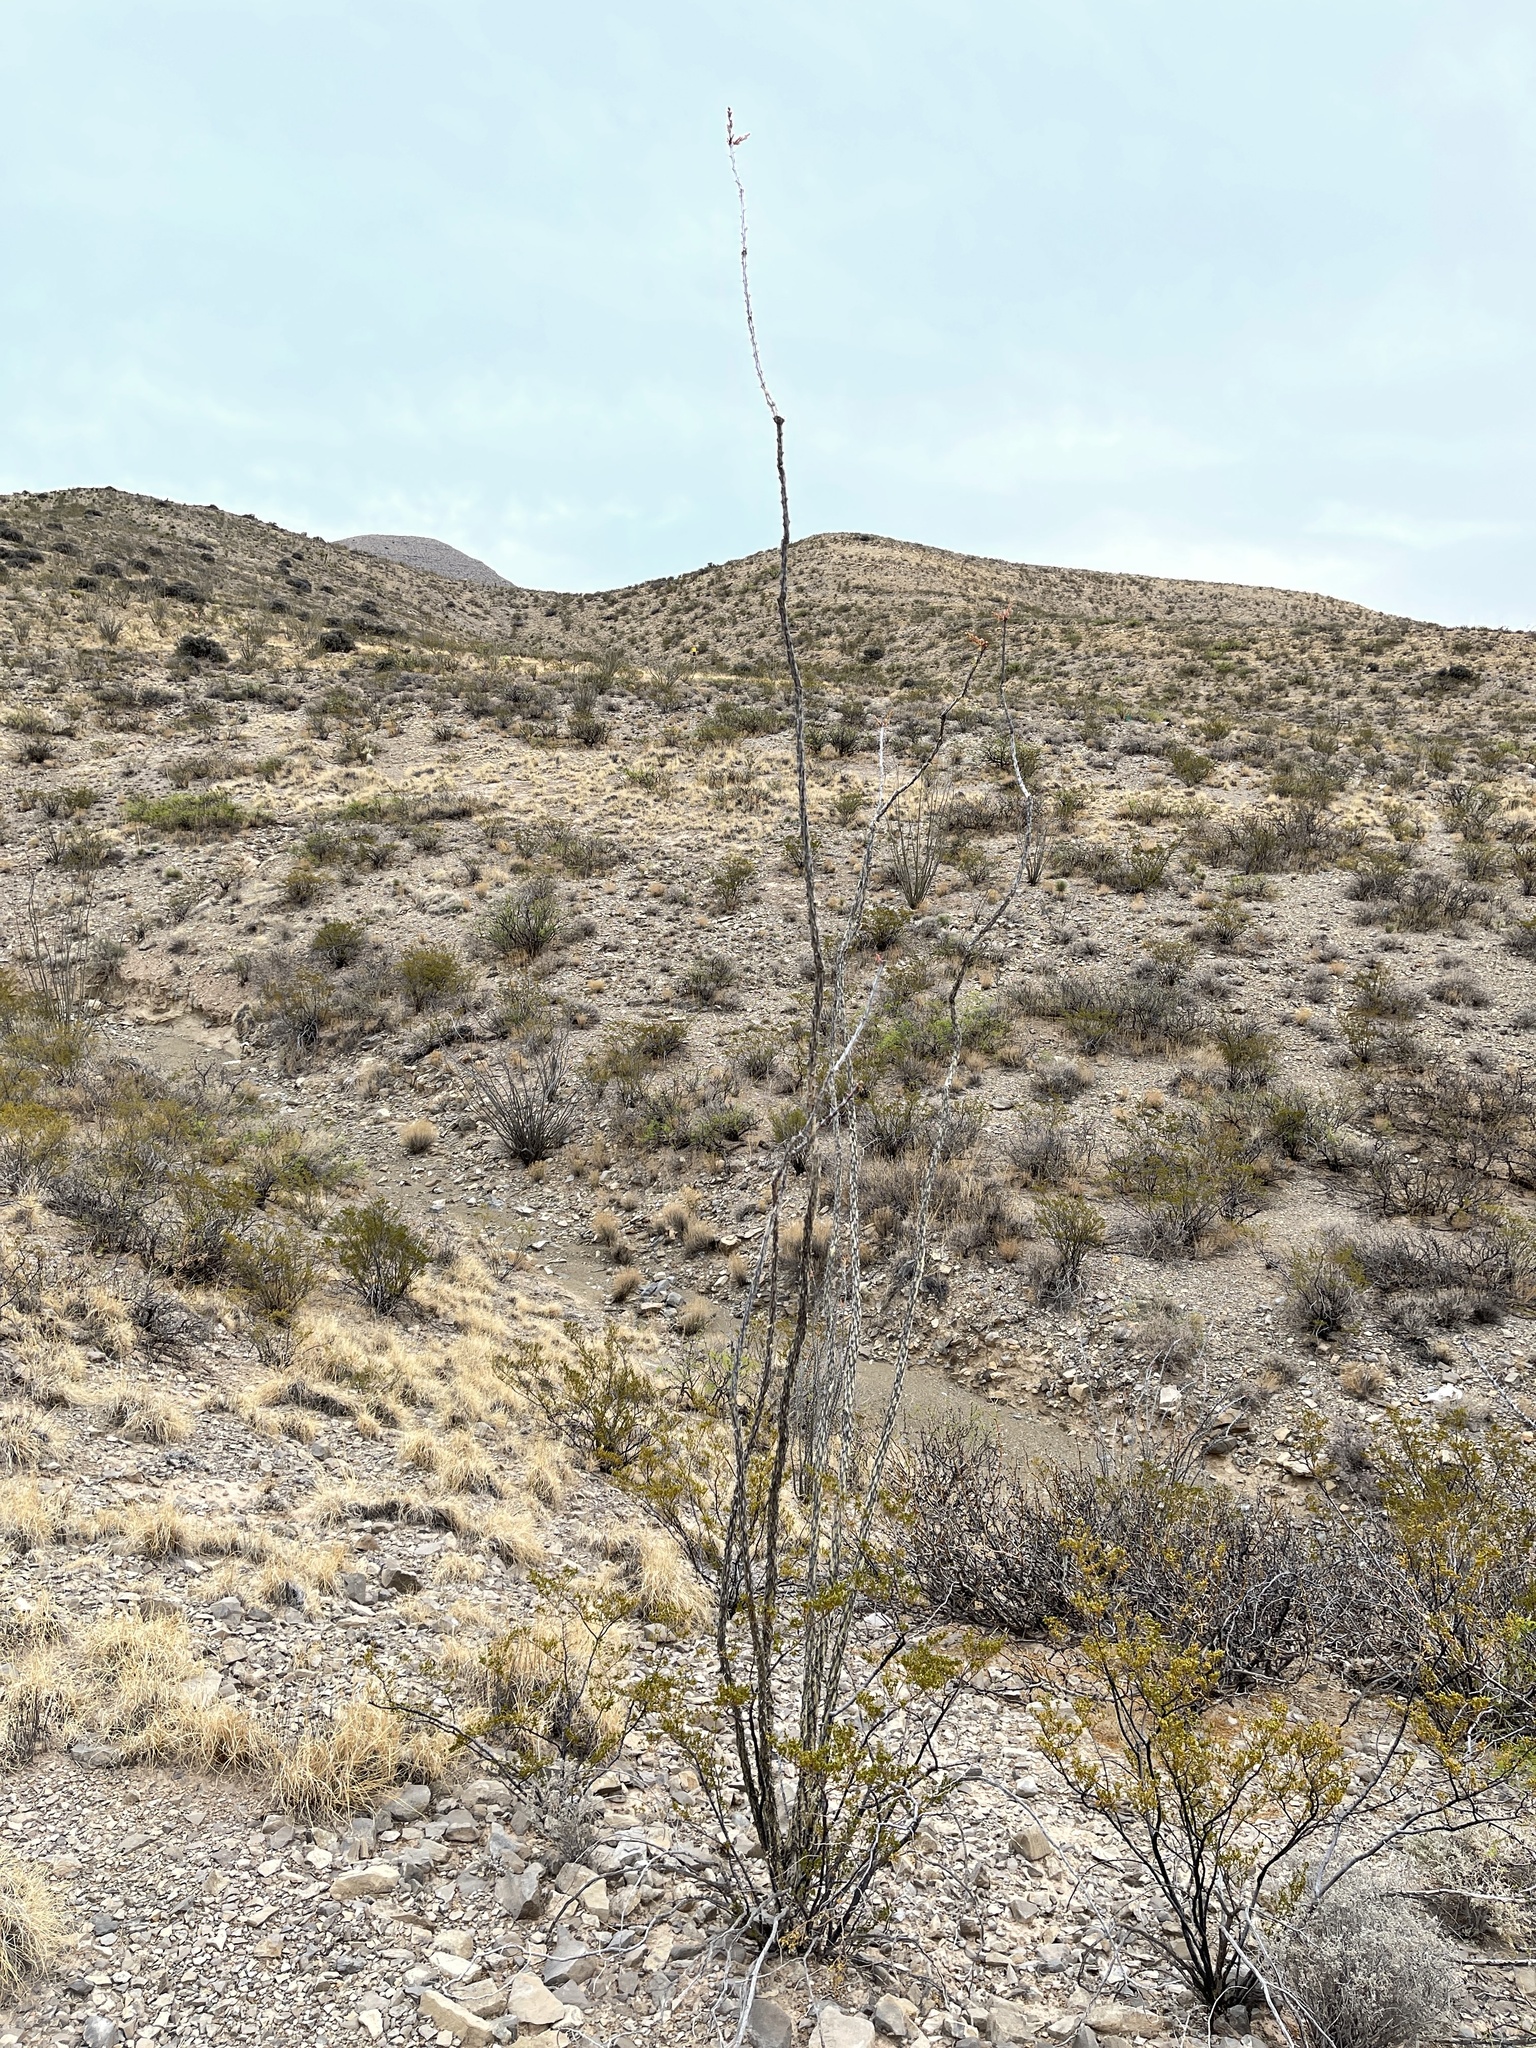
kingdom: Plantae
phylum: Tracheophyta
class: Magnoliopsida
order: Ericales
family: Fouquieriaceae
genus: Fouquieria
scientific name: Fouquieria splendens
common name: Vine-cactus
